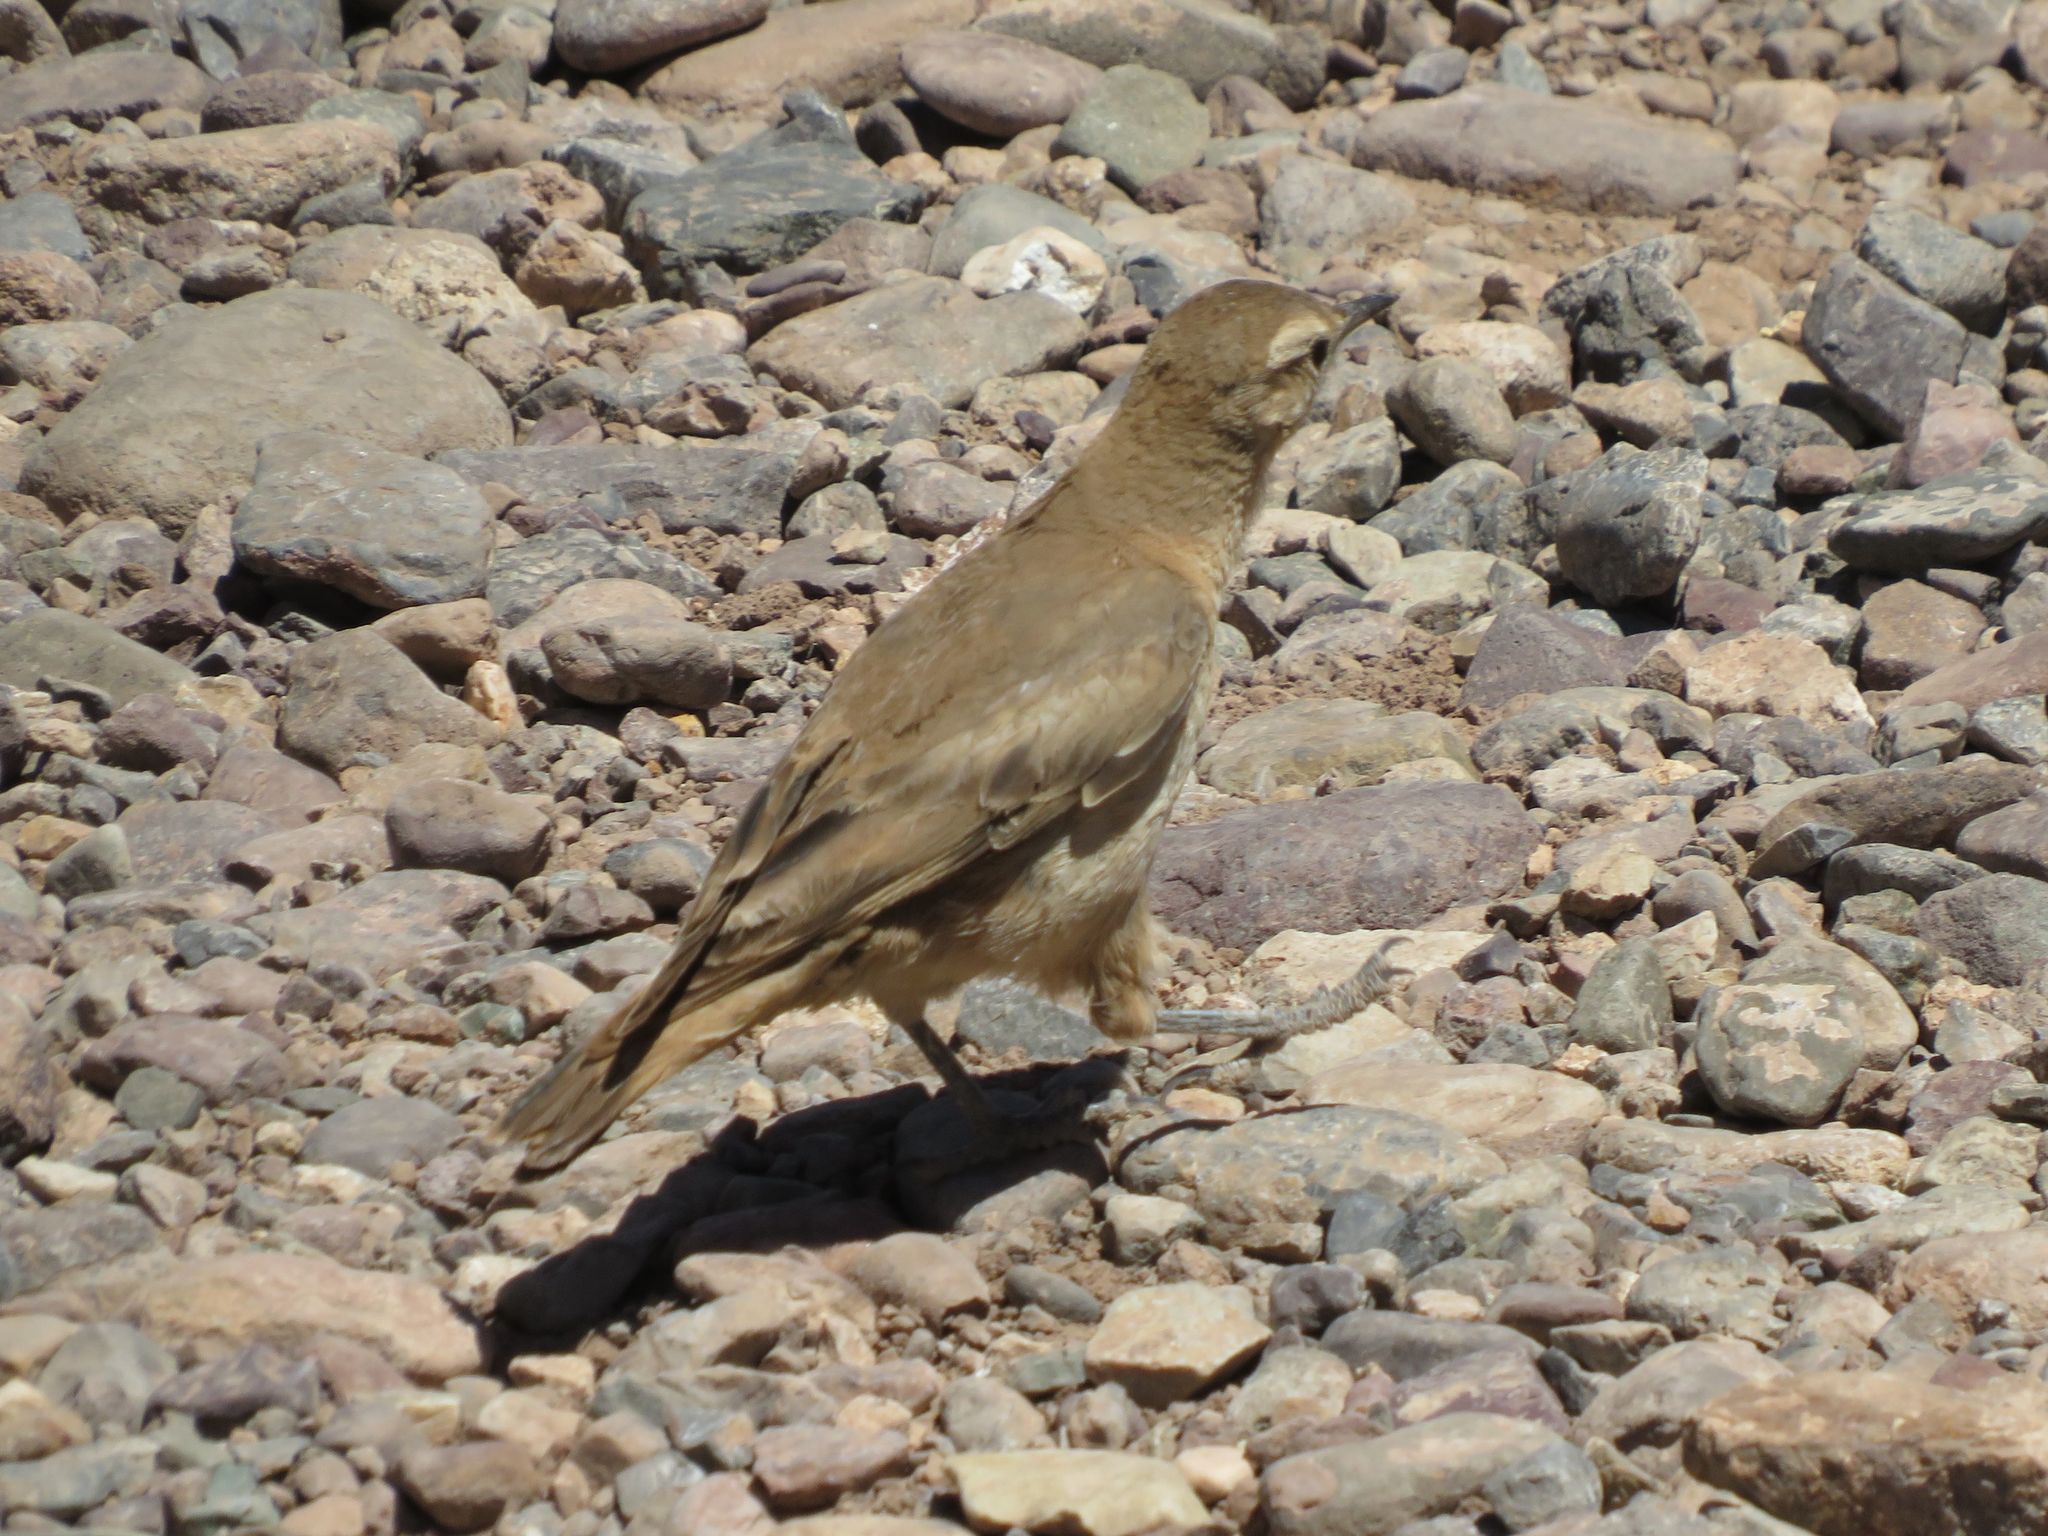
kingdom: Animalia
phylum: Chordata
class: Aves
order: Passeriformes
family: Furnariidae
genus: Geositta
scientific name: Geositta rufipennis
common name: Rufous-banded miner
